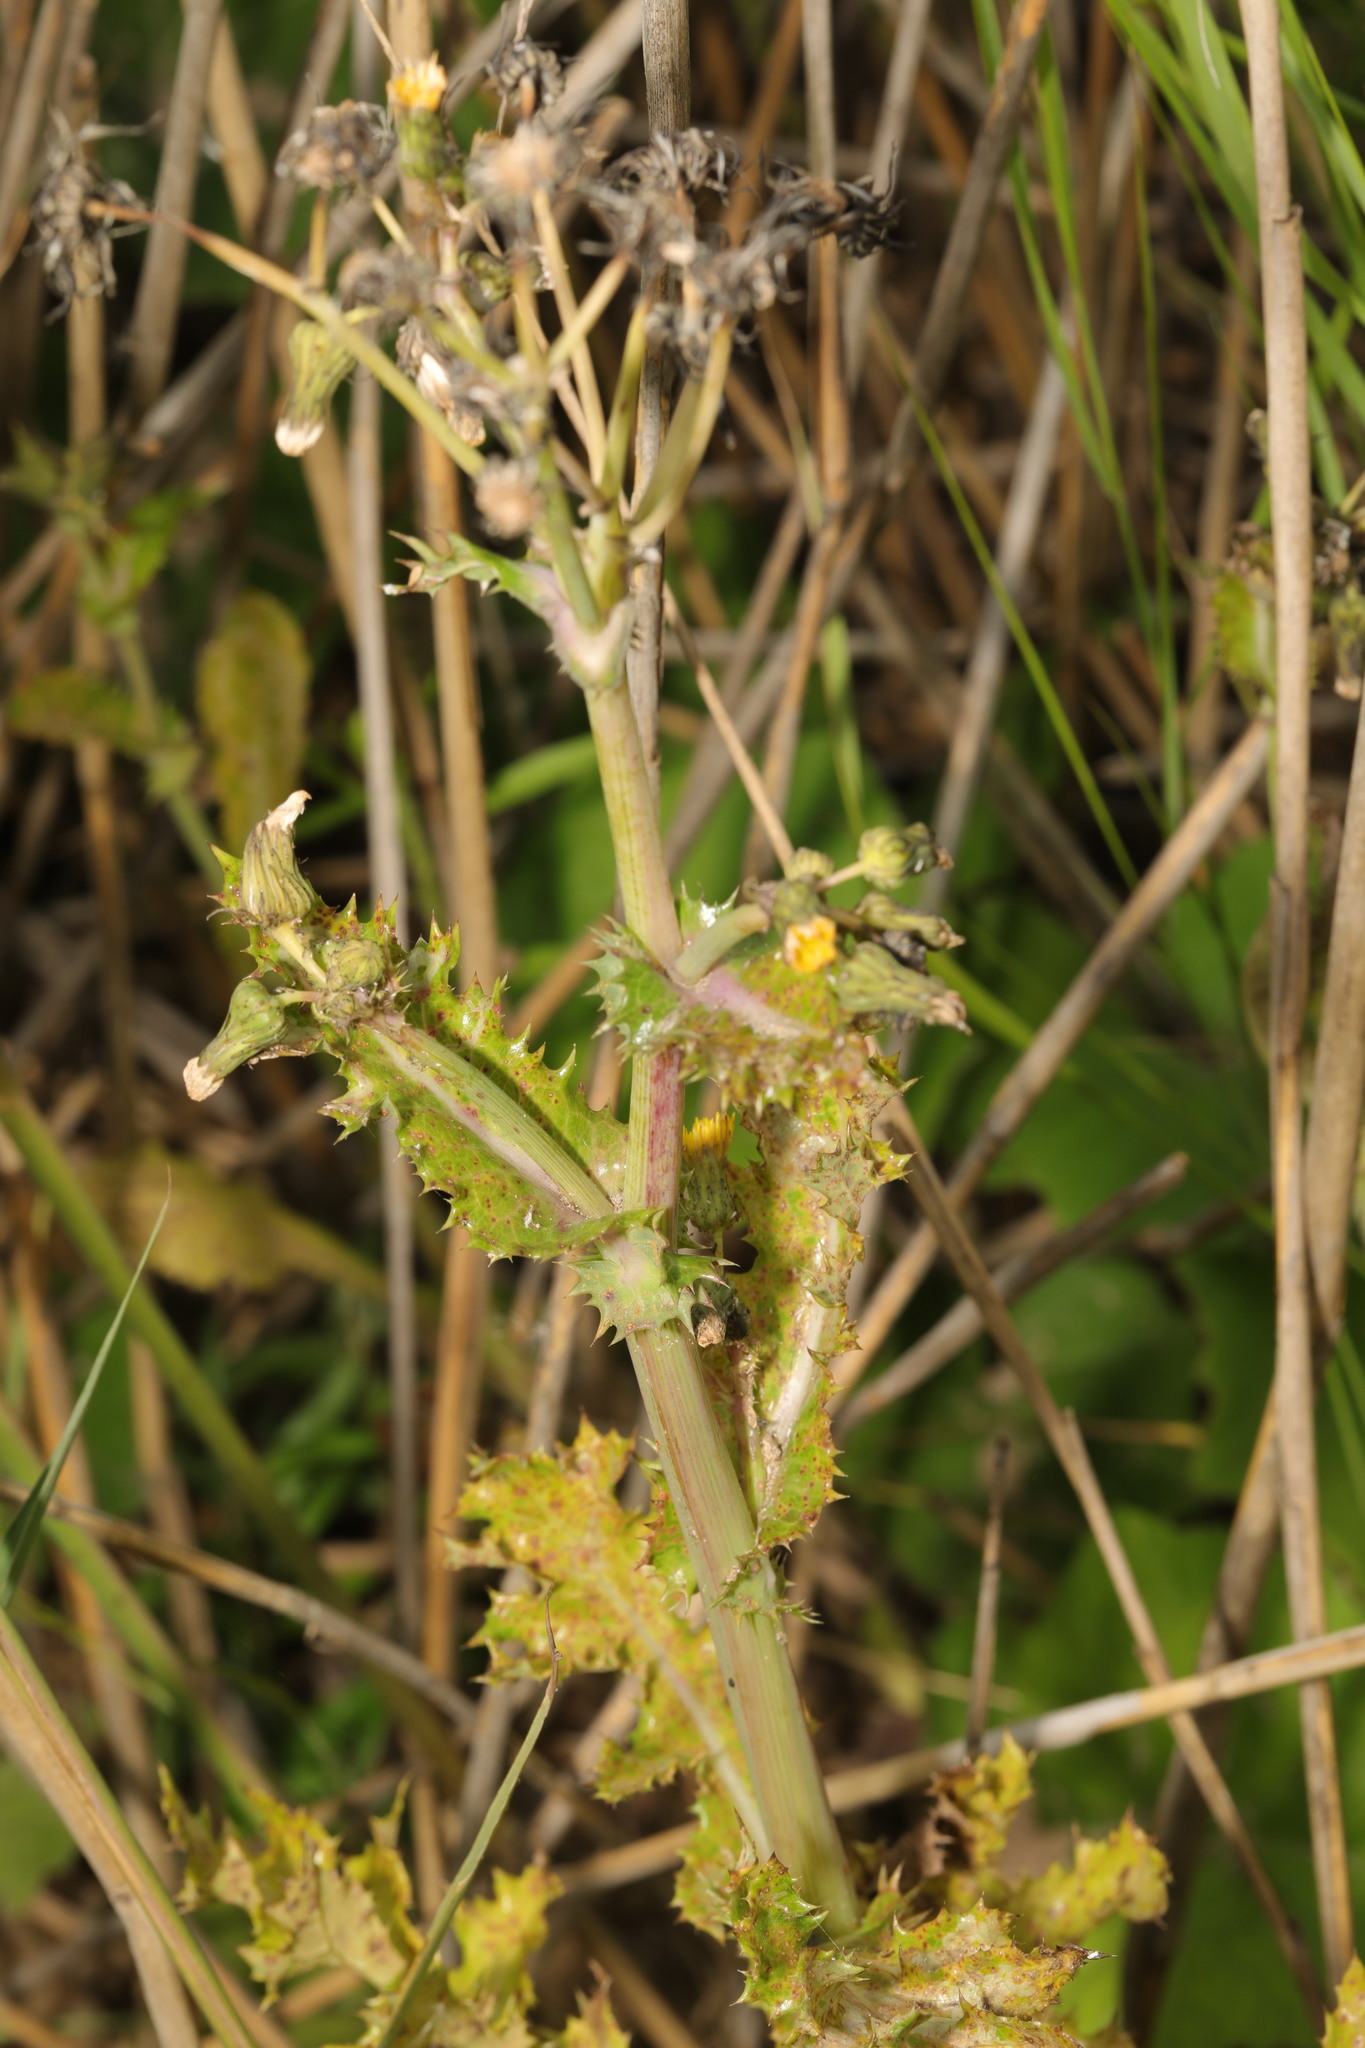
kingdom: Plantae
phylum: Tracheophyta
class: Magnoliopsida
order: Asterales
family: Asteraceae
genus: Sonchus
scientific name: Sonchus asper
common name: Prickly sow-thistle
